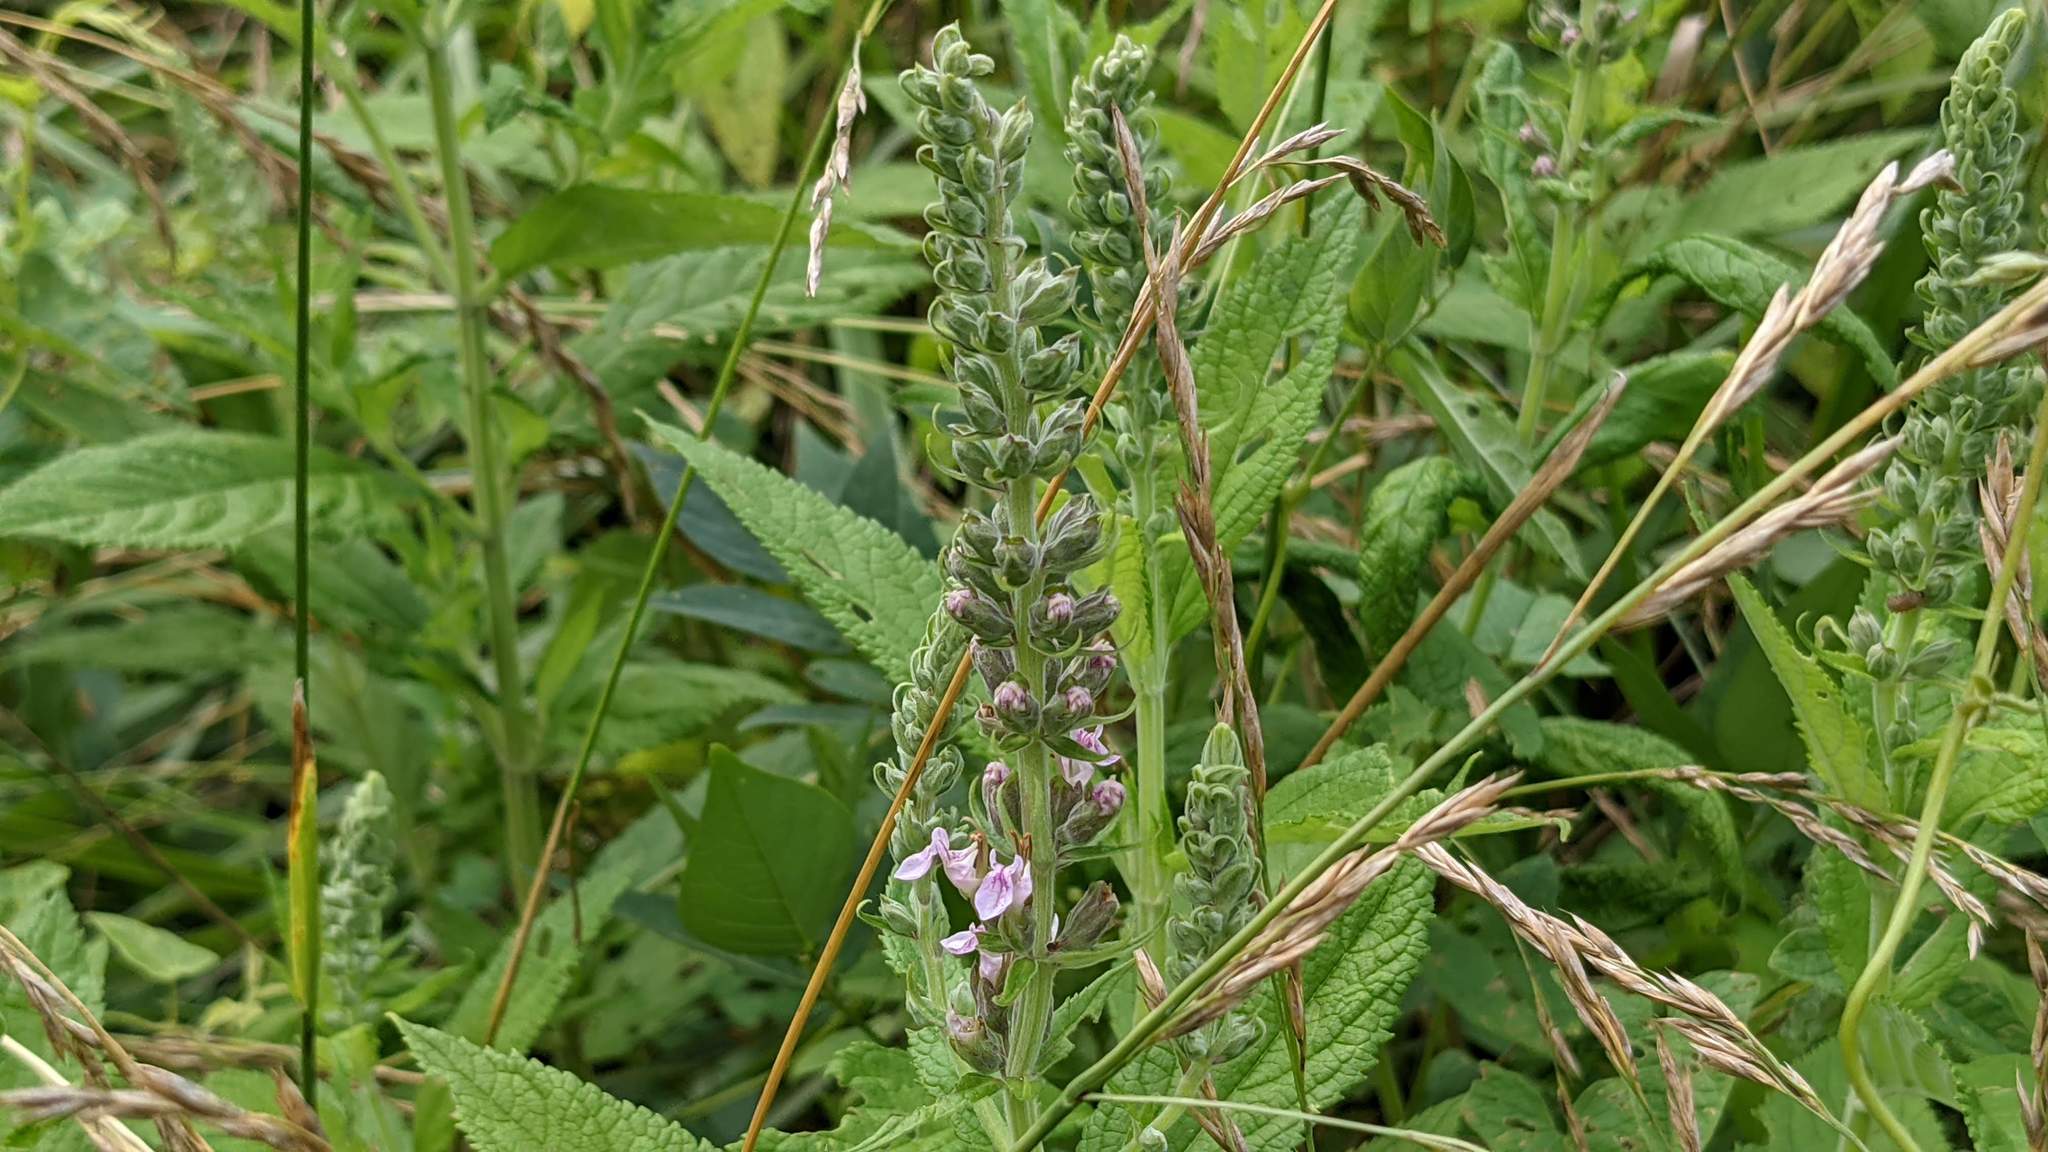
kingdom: Plantae
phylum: Tracheophyta
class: Magnoliopsida
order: Lamiales
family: Lamiaceae
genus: Teucrium
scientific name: Teucrium canadense
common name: American germander
